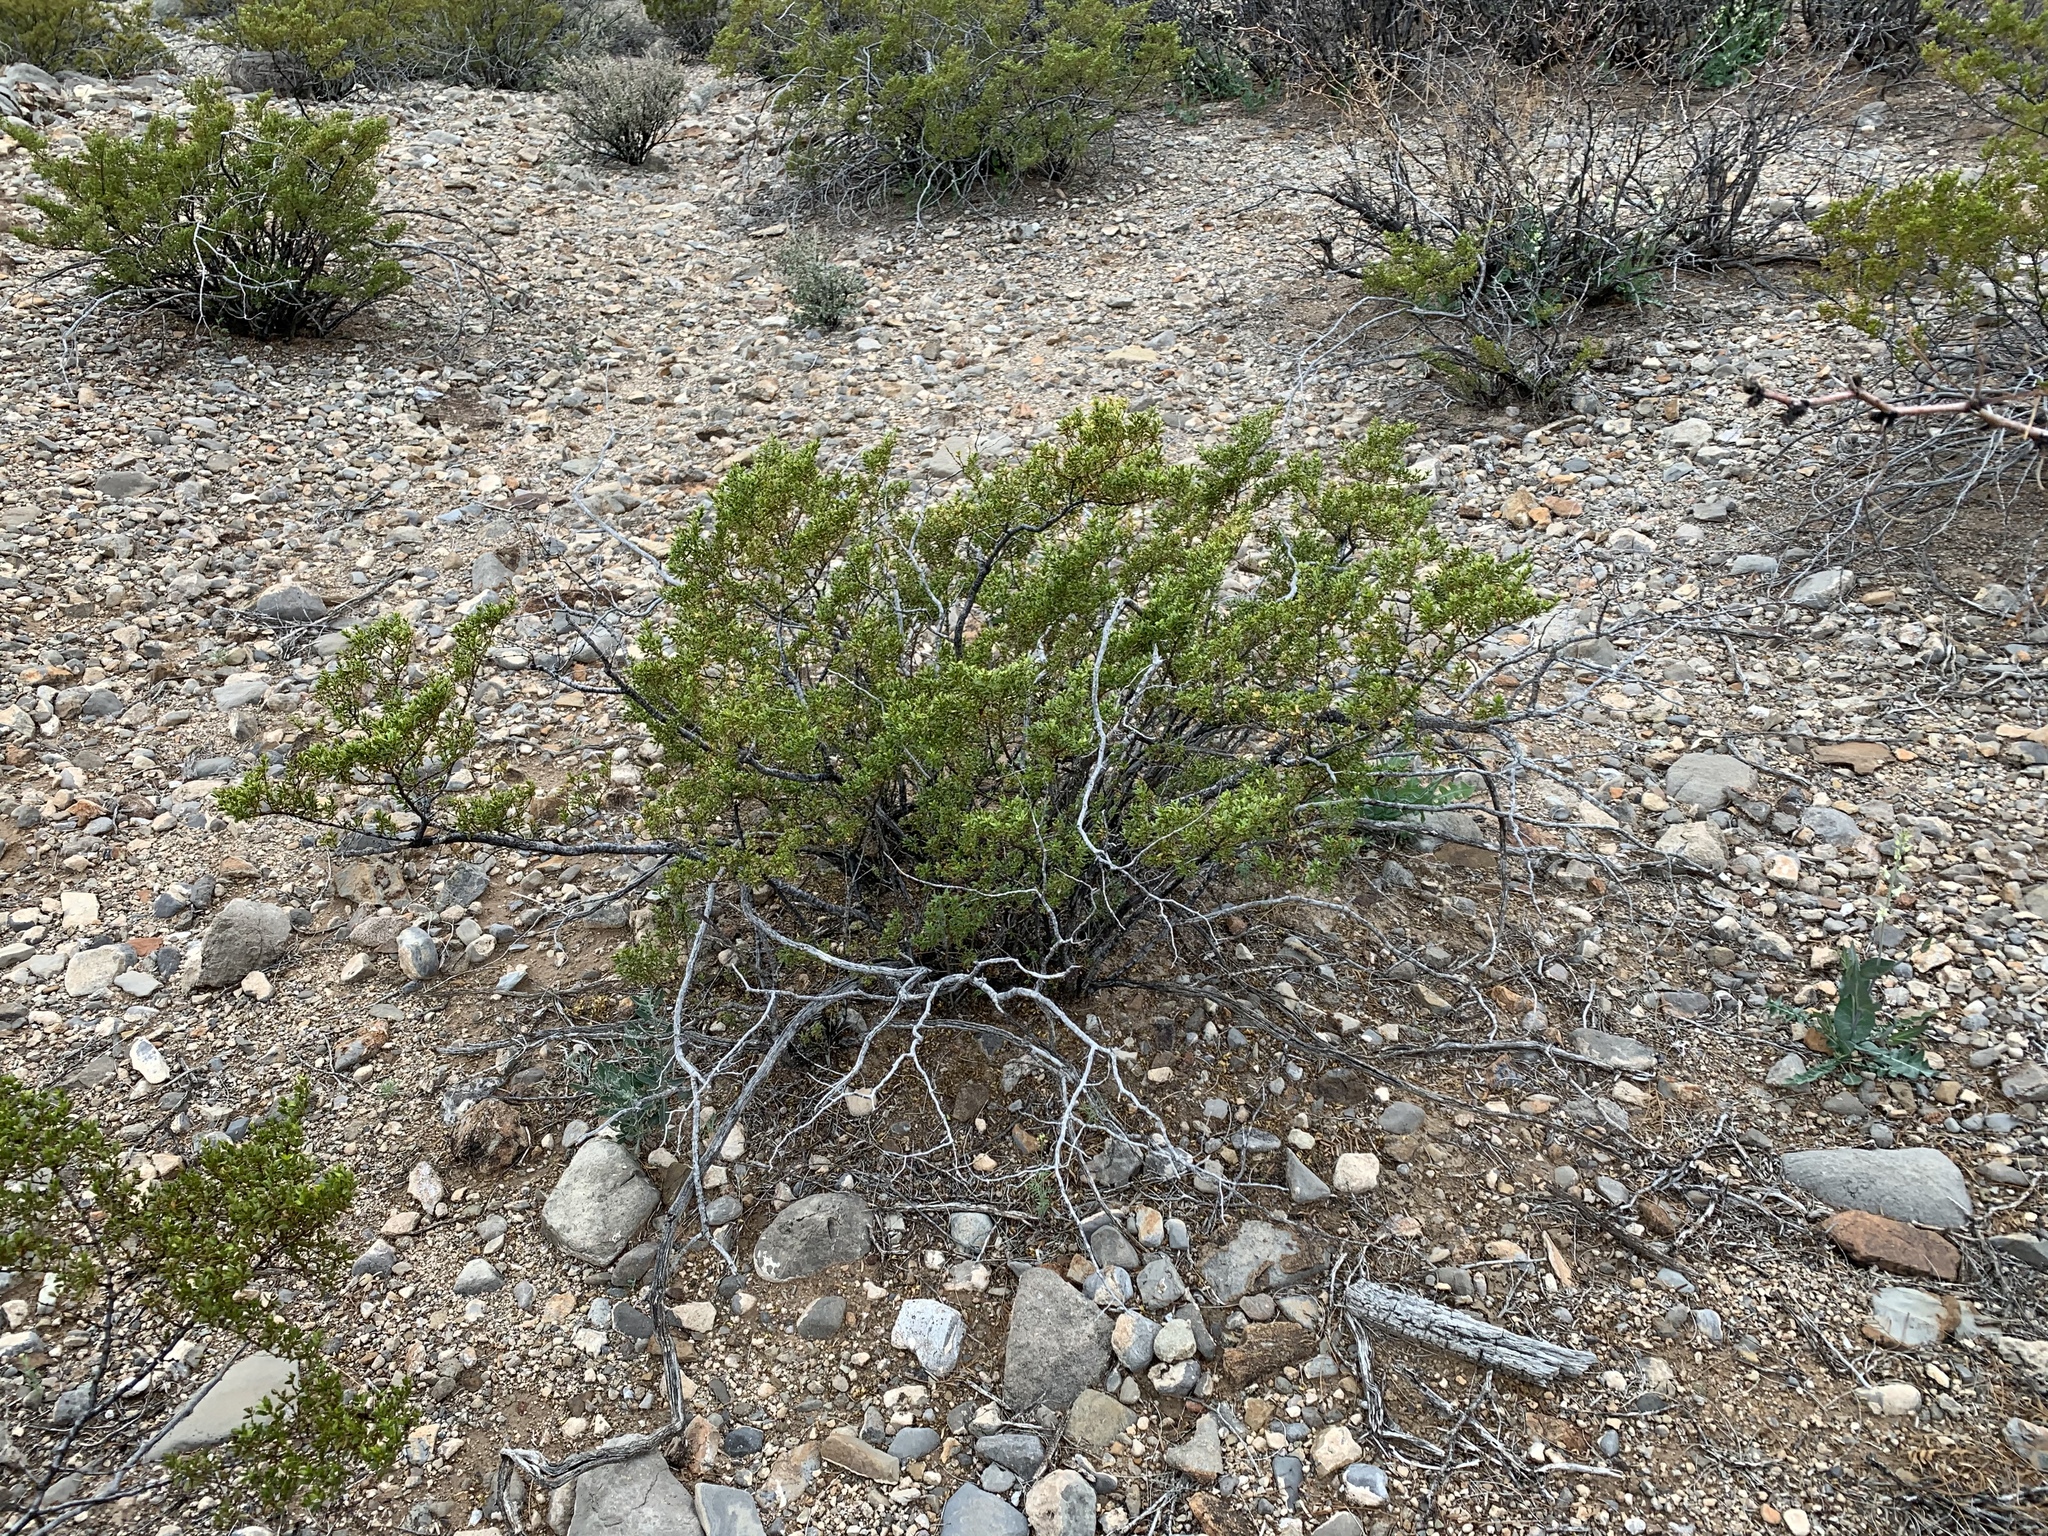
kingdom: Plantae
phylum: Tracheophyta
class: Magnoliopsida
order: Zygophyllales
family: Zygophyllaceae
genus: Larrea
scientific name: Larrea tridentata
